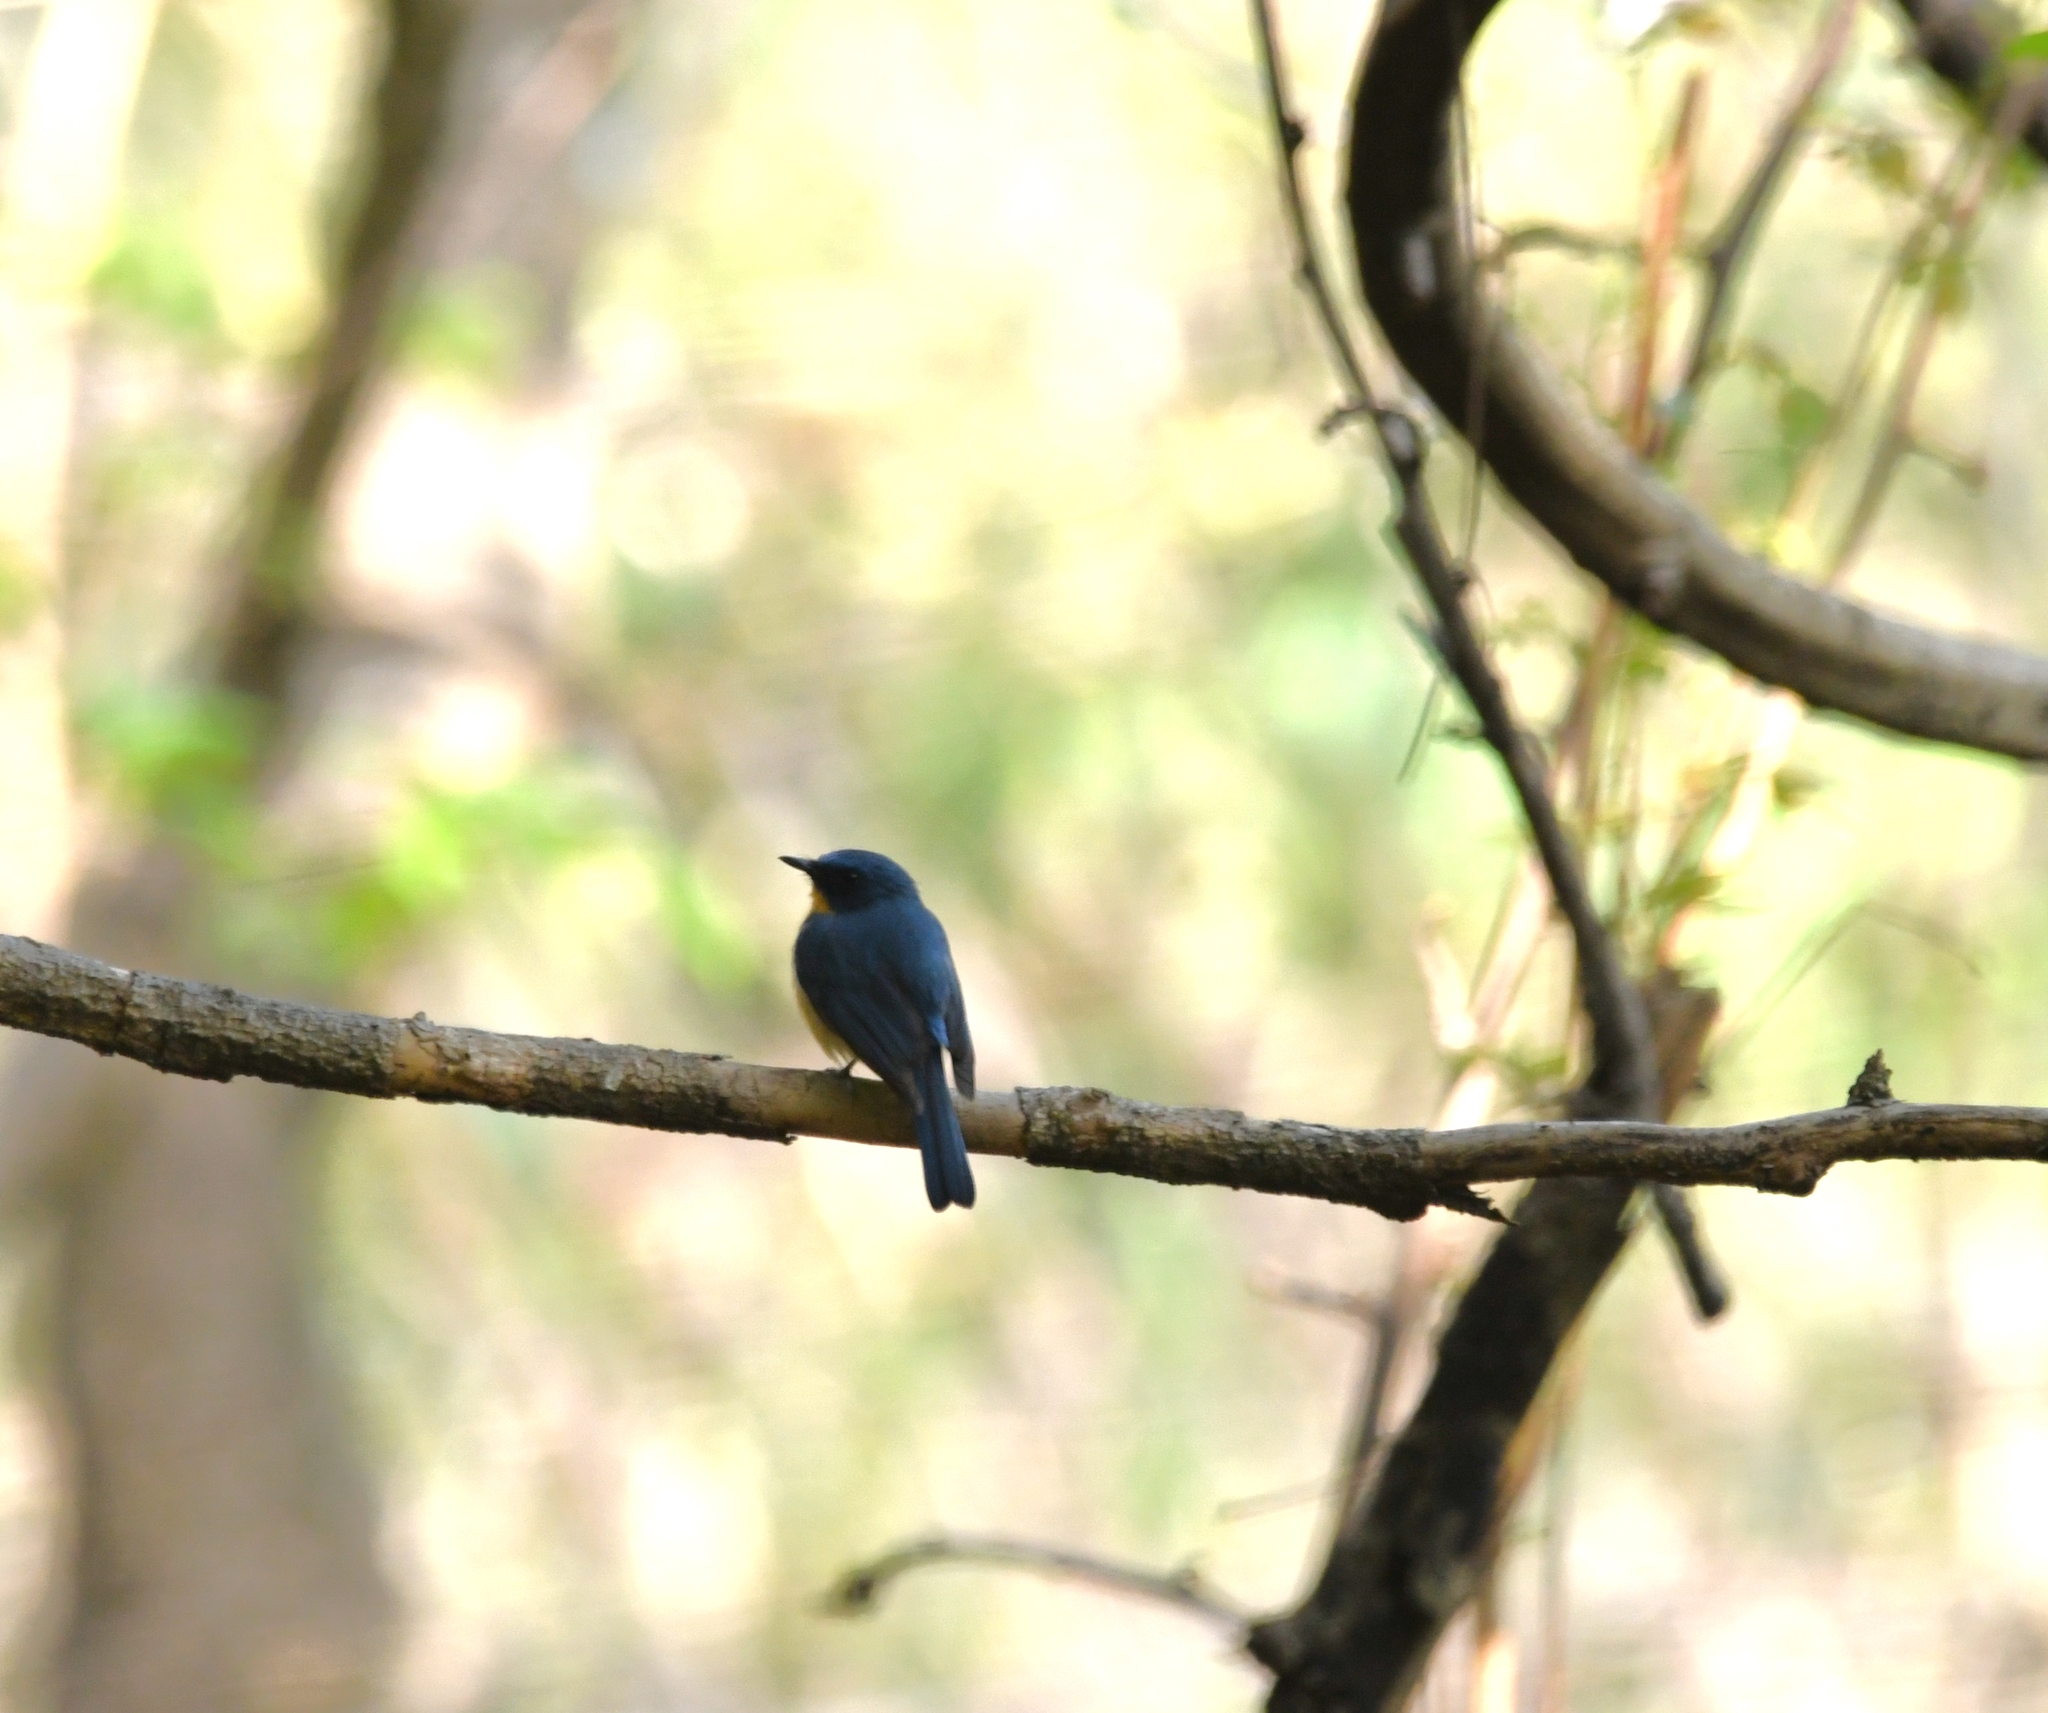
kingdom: Animalia
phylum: Chordata
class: Aves
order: Passeriformes
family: Muscicapidae
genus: Cyornis
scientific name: Cyornis tickelliae
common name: Tickell's blue flycatcher
